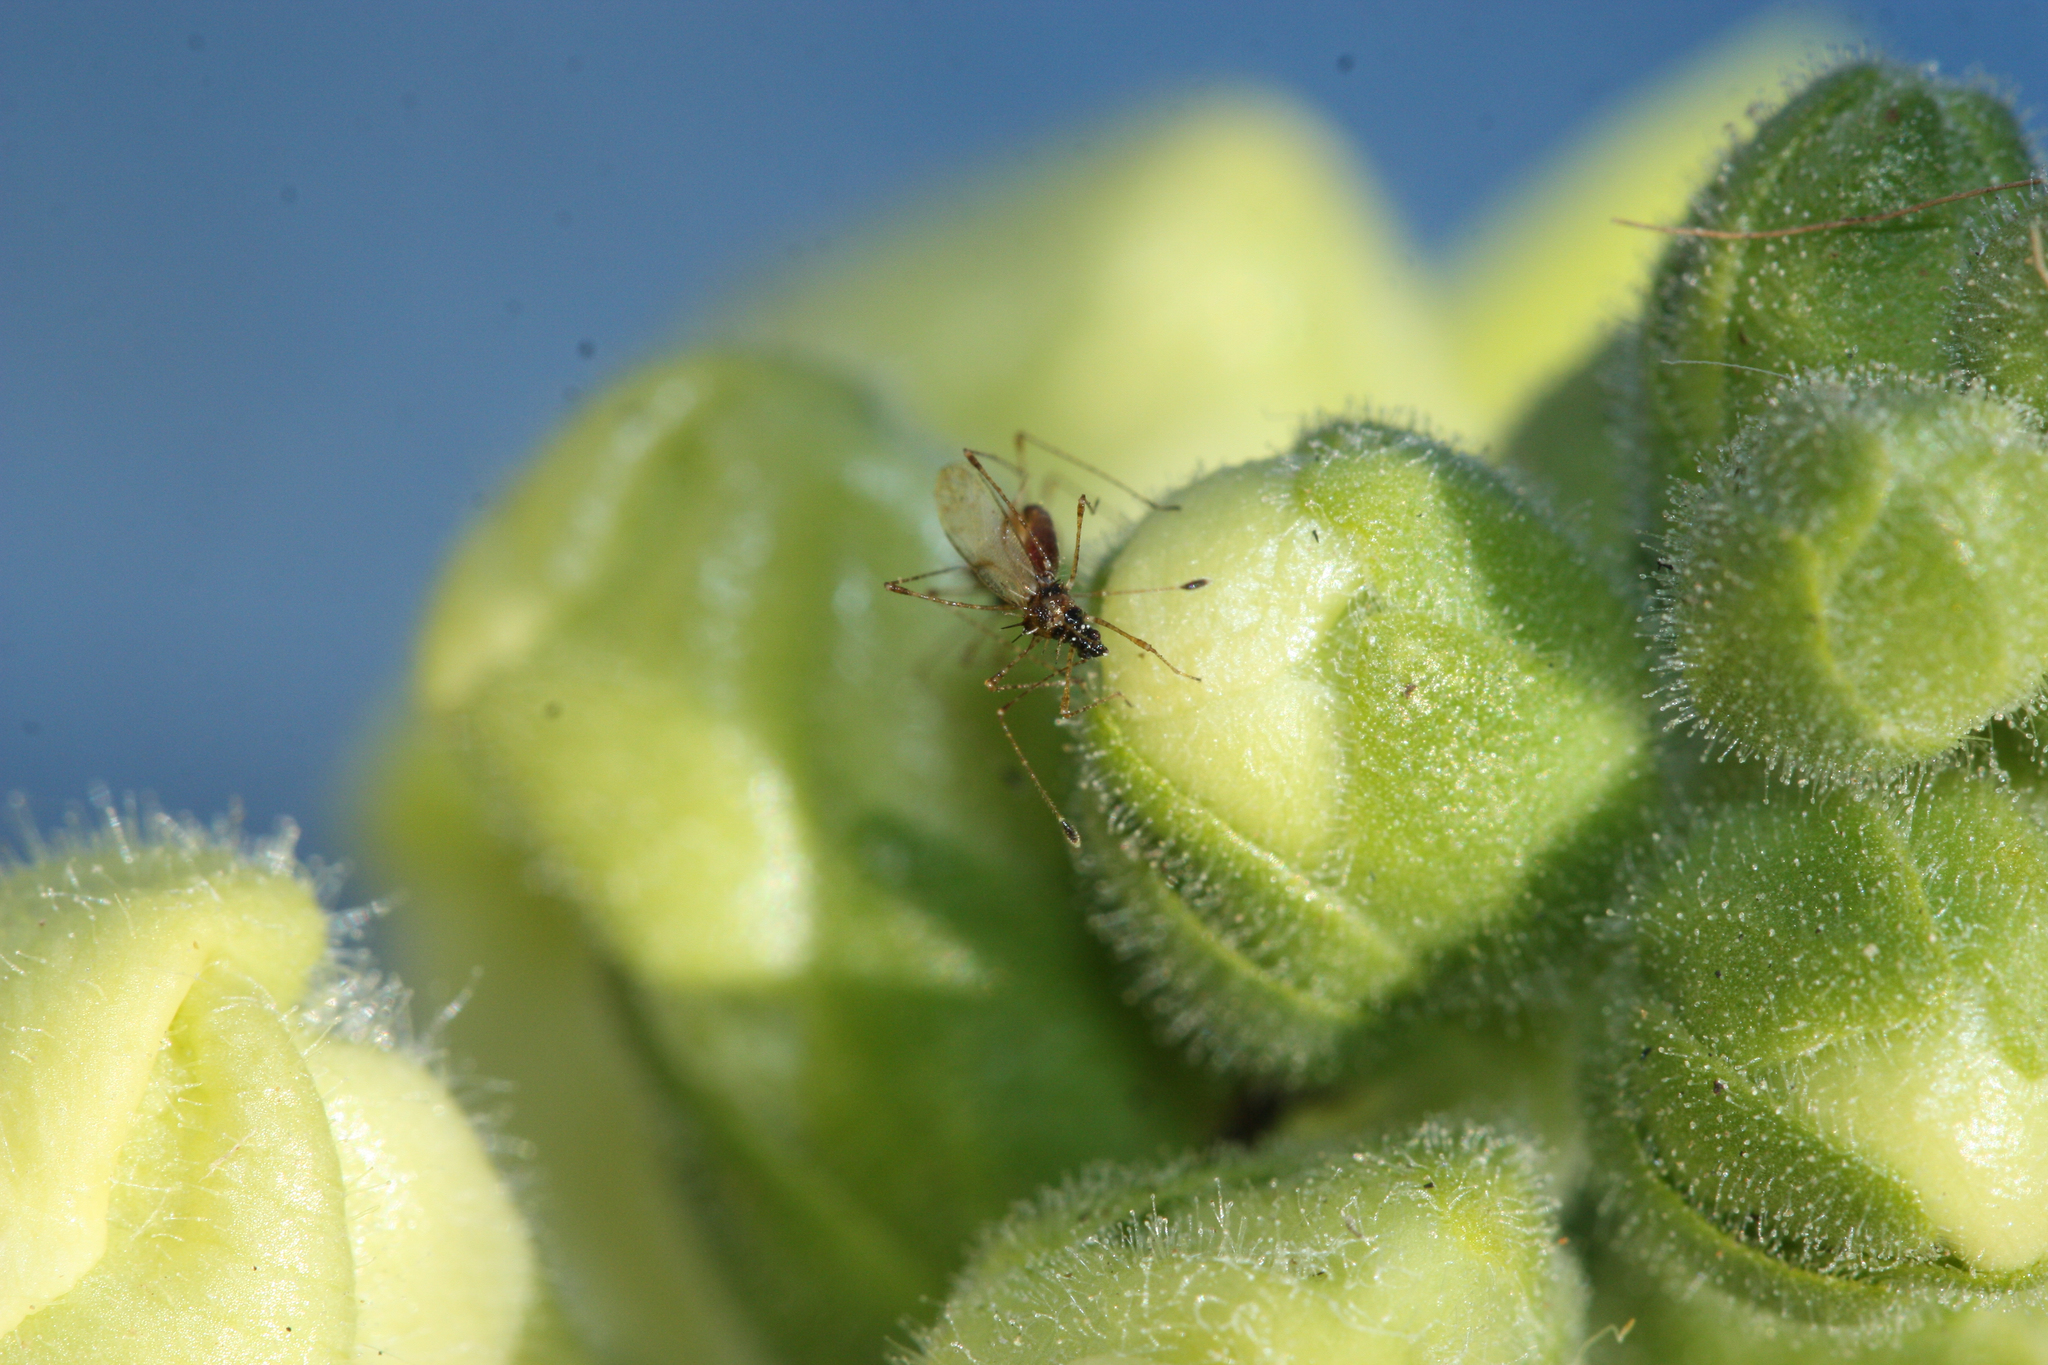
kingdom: Animalia
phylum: Arthropoda
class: Insecta
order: Hemiptera
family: Berytidae
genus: Pronotacantha
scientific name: Pronotacantha annulata
